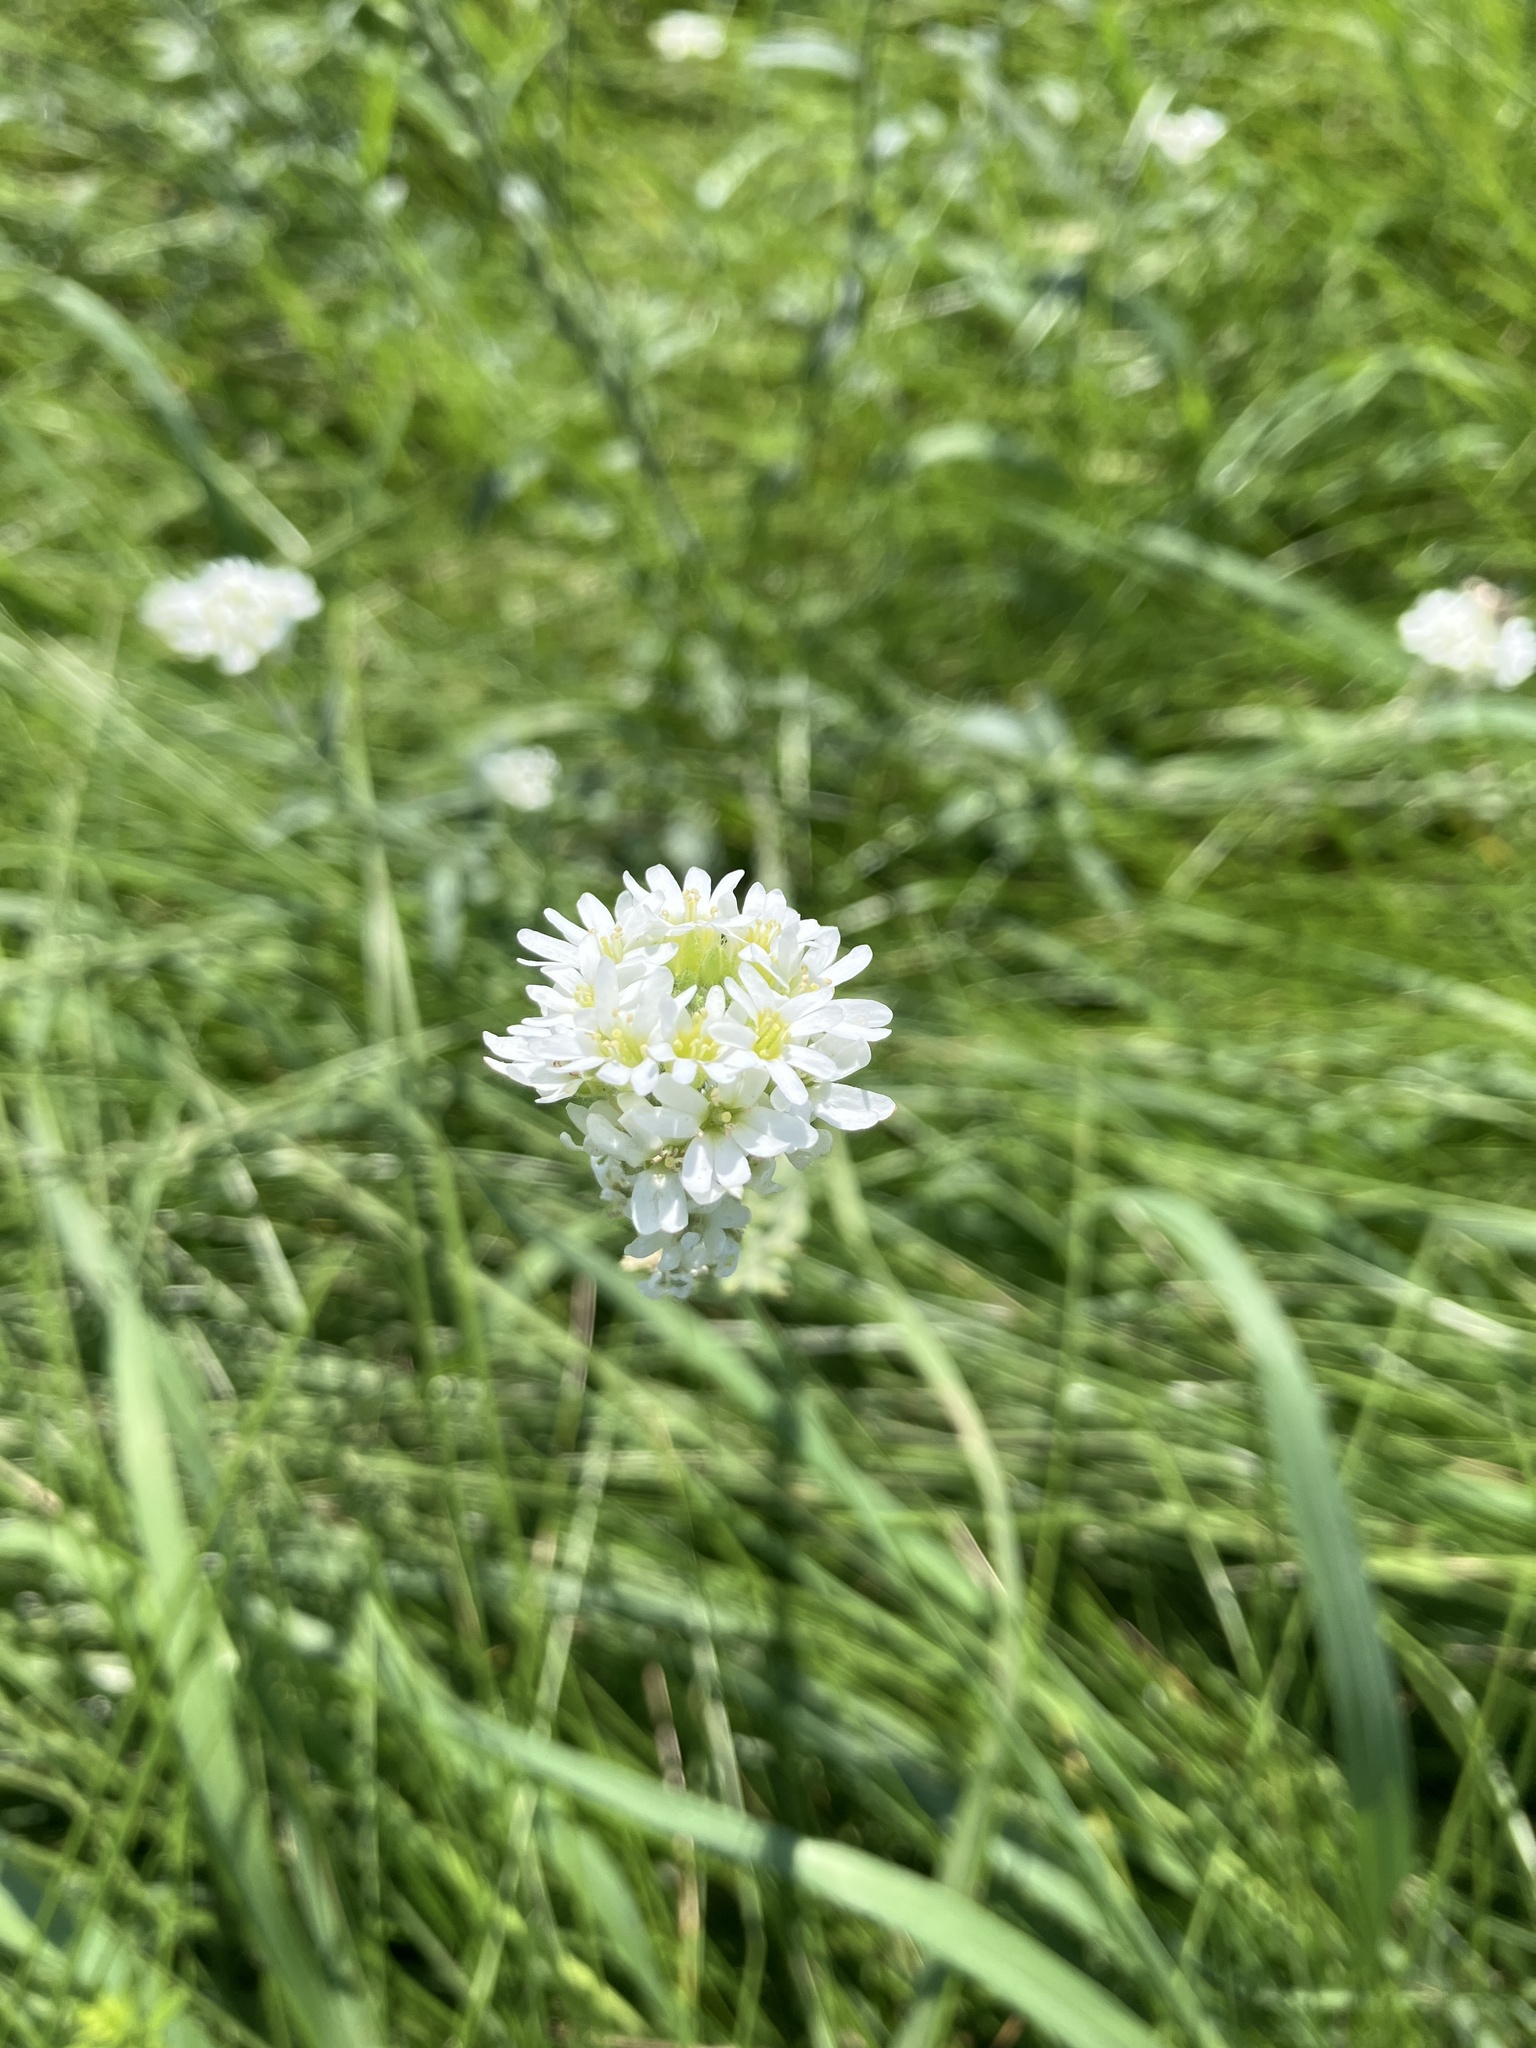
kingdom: Plantae
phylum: Tracheophyta
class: Magnoliopsida
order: Brassicales
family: Brassicaceae
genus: Berteroa
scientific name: Berteroa incana
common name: Hoary alison
